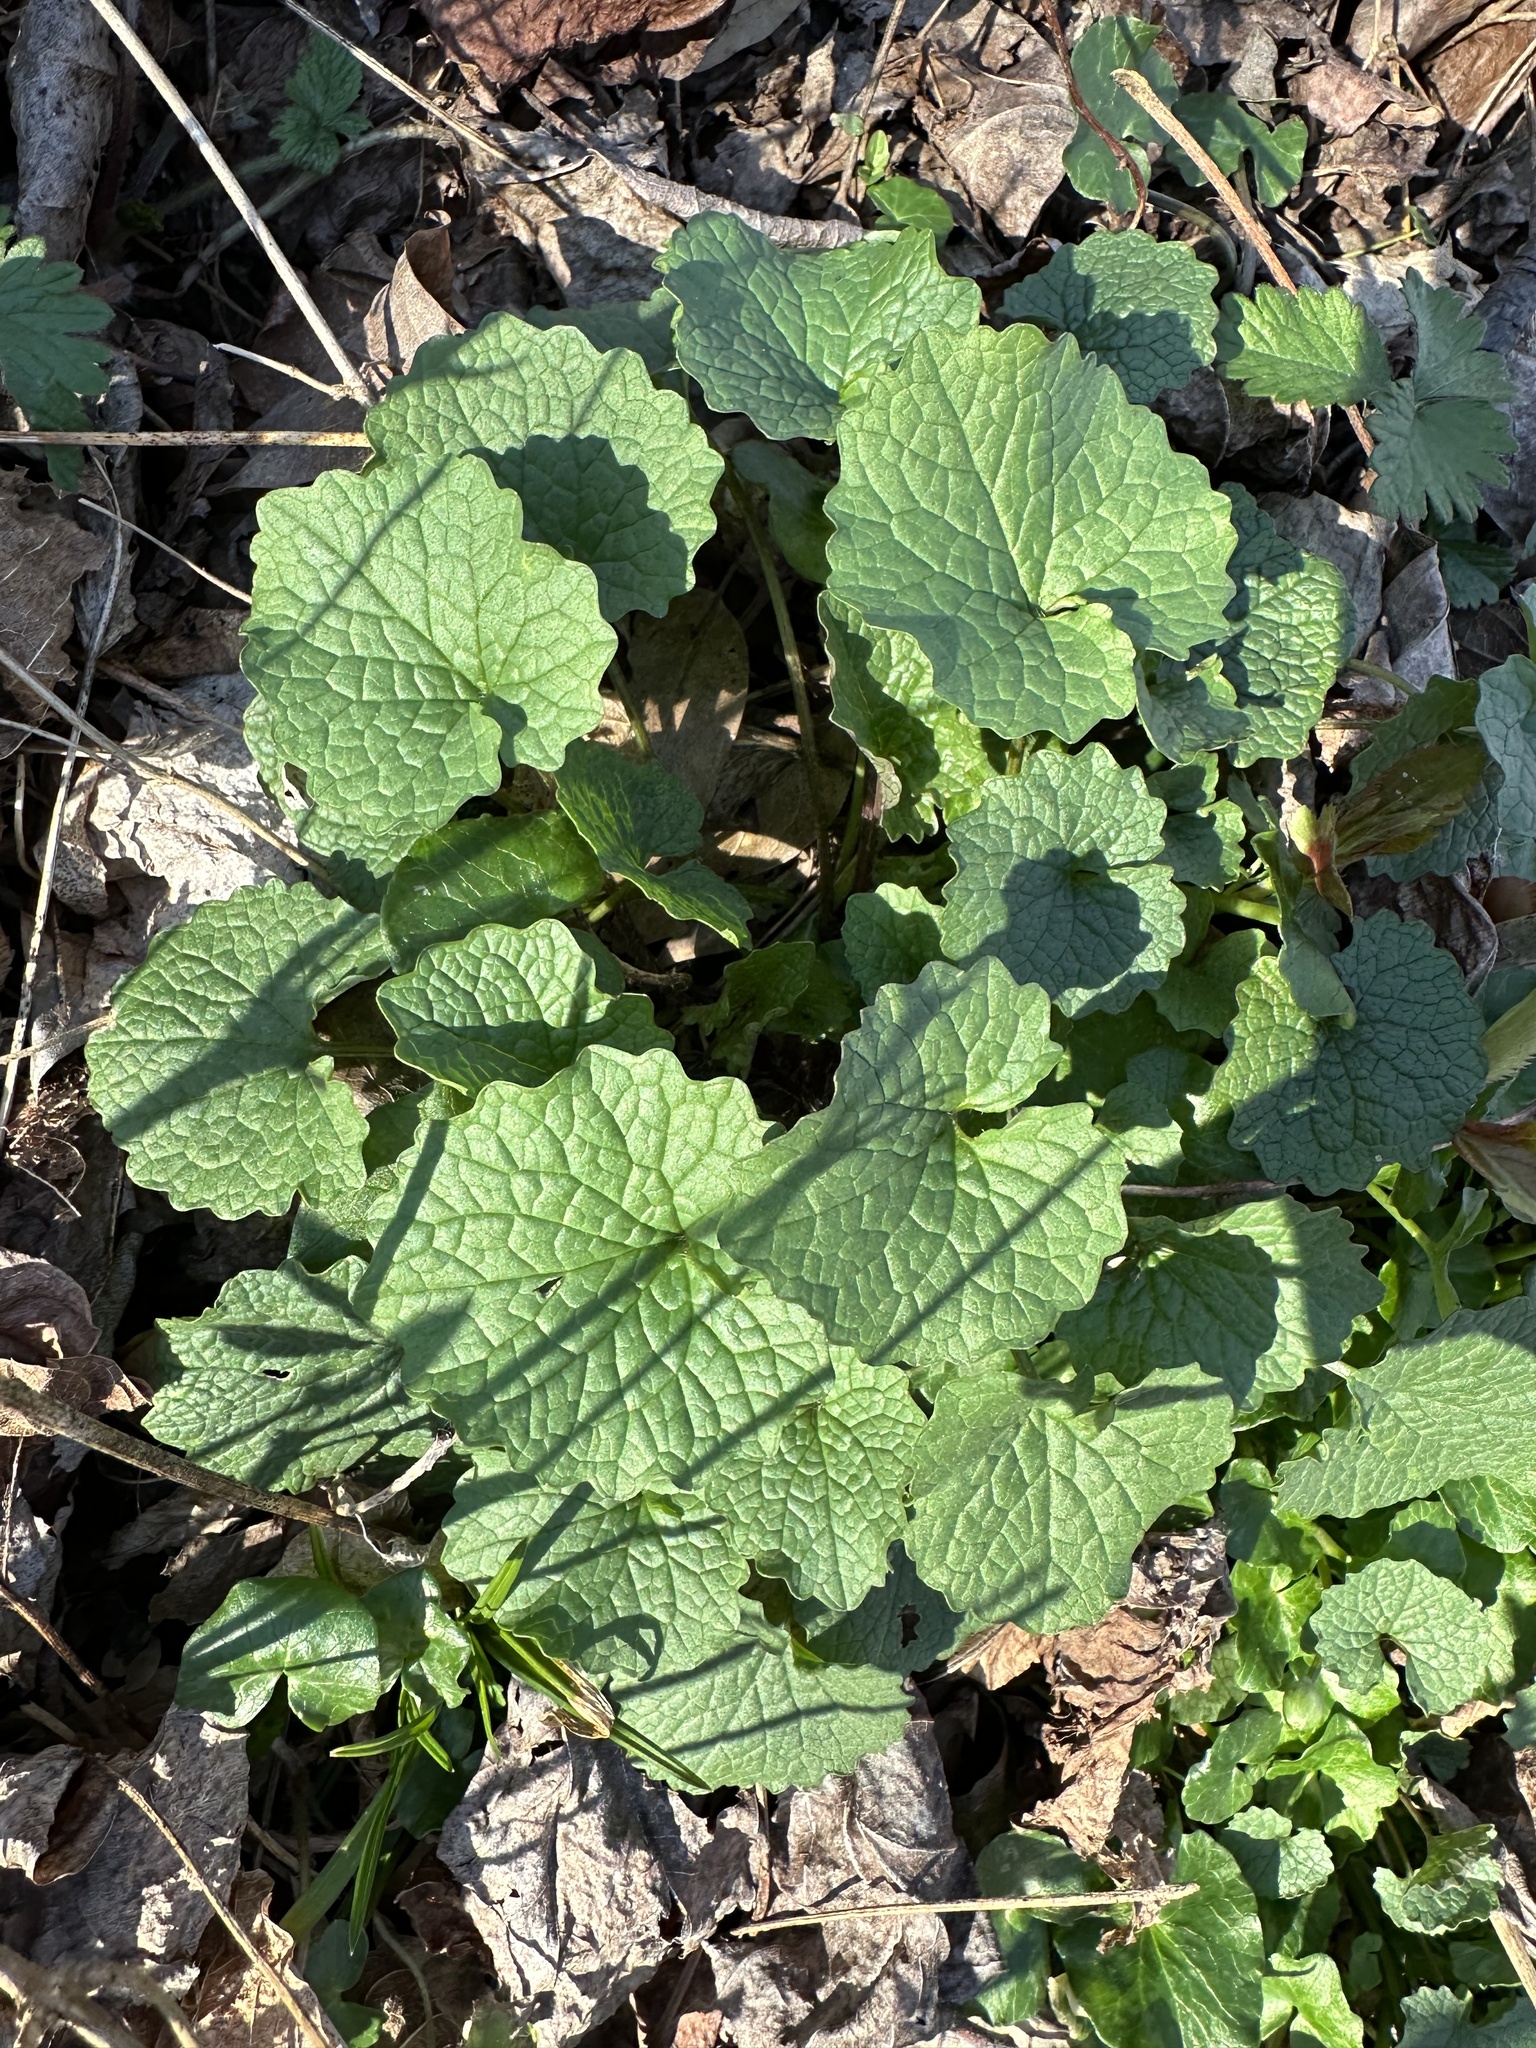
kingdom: Plantae
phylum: Tracheophyta
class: Magnoliopsida
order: Brassicales
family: Brassicaceae
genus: Alliaria
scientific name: Alliaria petiolata
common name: Garlic mustard
